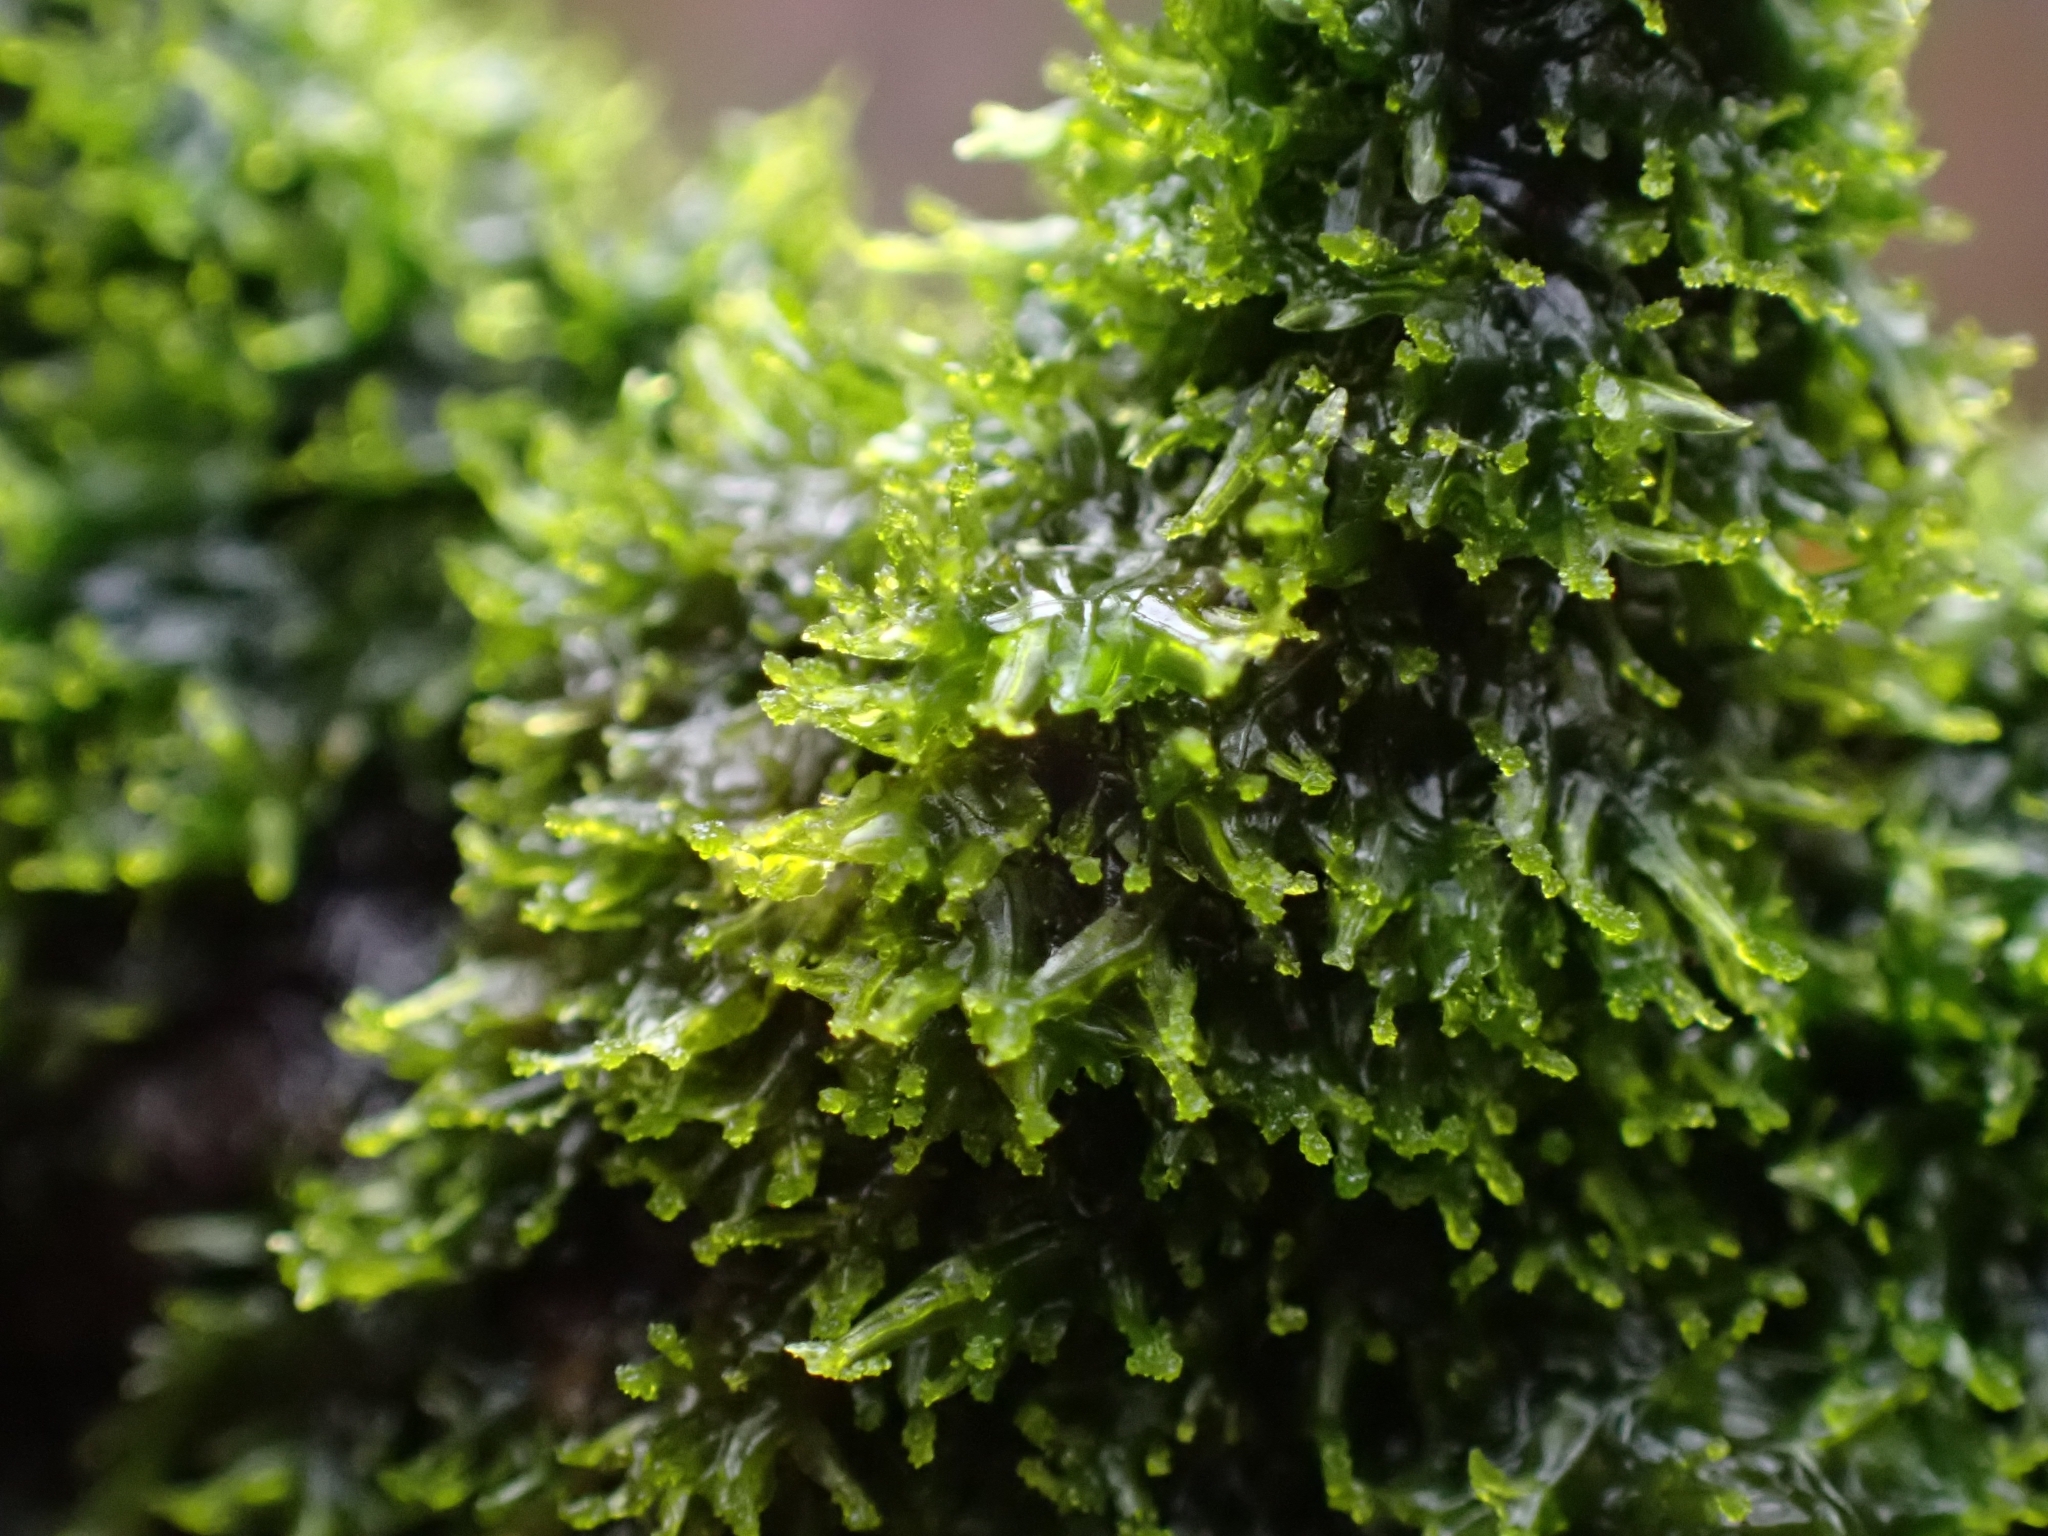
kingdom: Plantae
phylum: Marchantiophyta
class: Jungermanniopsida
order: Metzgeriales
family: Metzgeriaceae
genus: Metzgeria
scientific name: Metzgeria violacea
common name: Blueish veilwort
